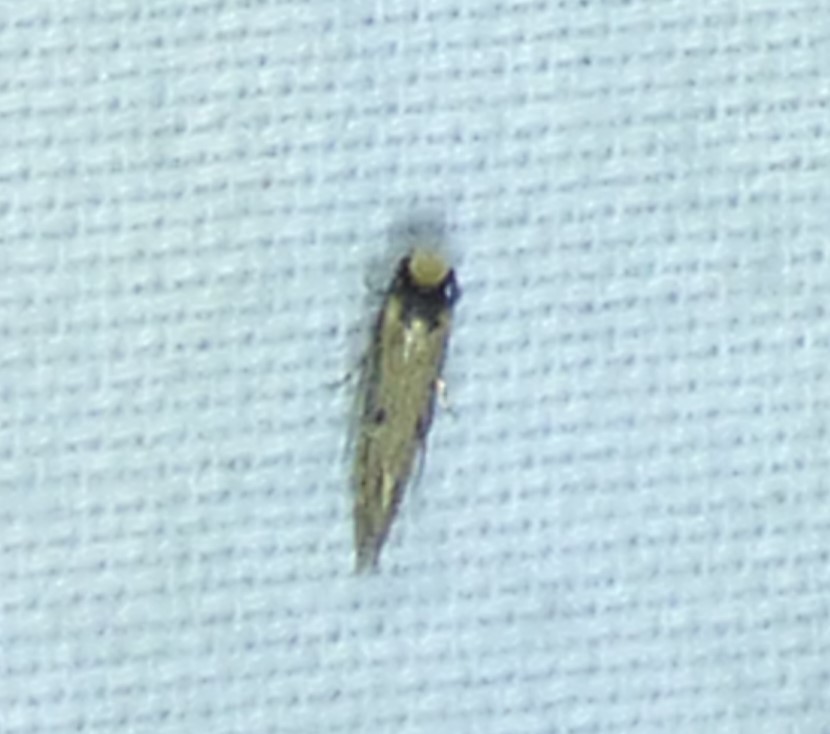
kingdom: Animalia
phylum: Arthropoda
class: Insecta
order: Lepidoptera
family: Tineidae
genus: Tinea
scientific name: Tinea apicimaculella
